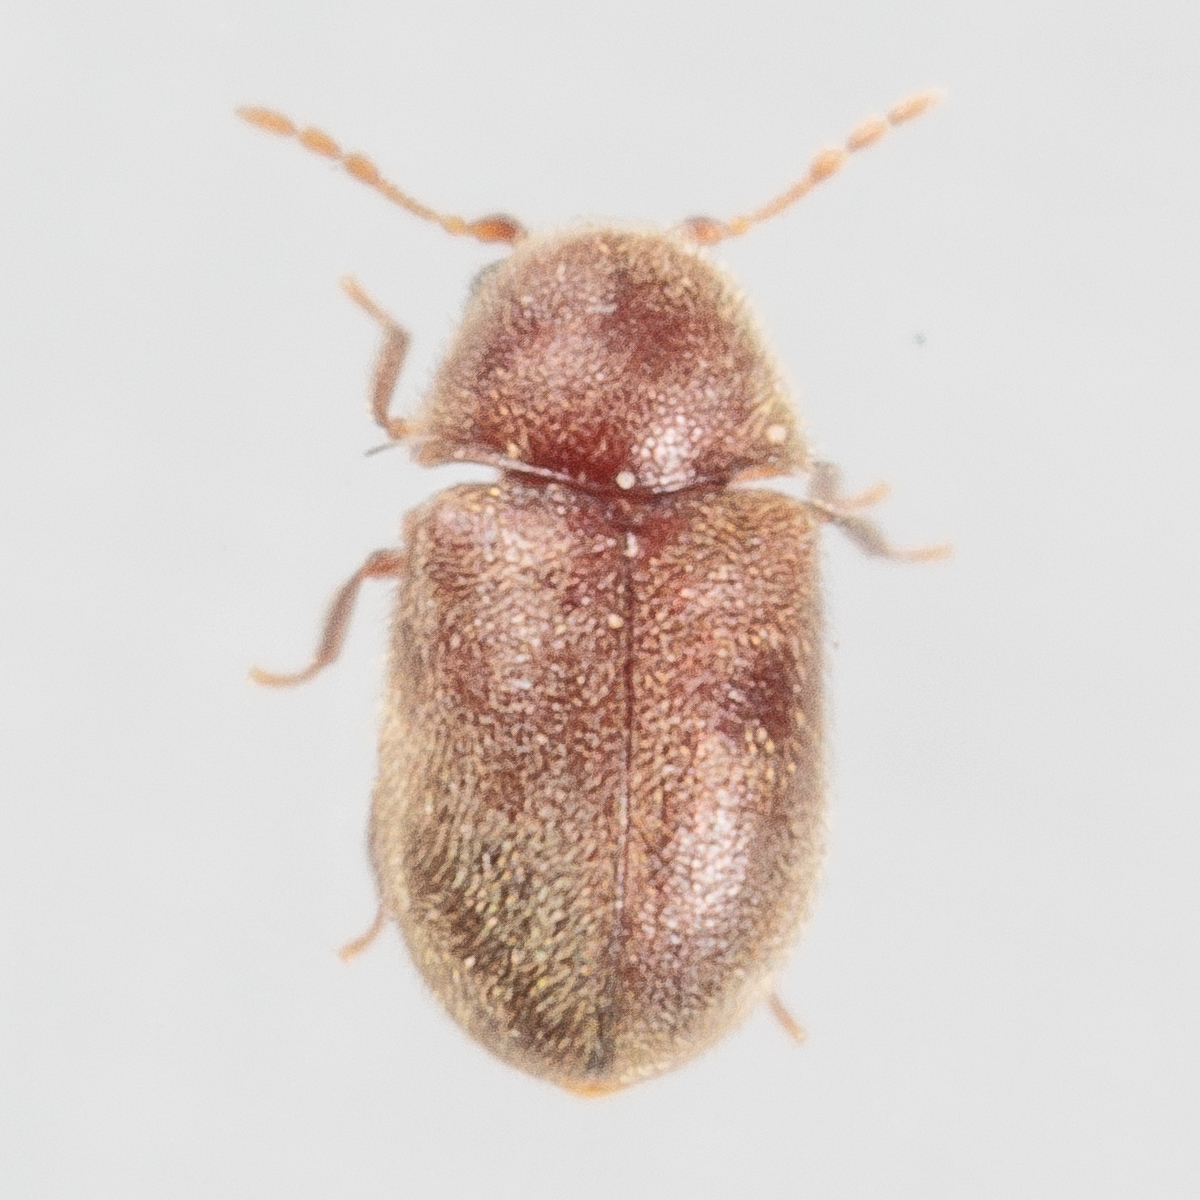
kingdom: Animalia
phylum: Arthropoda
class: Insecta
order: Coleoptera
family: Anobiidae
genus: Protheca
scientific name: Protheca hispida
